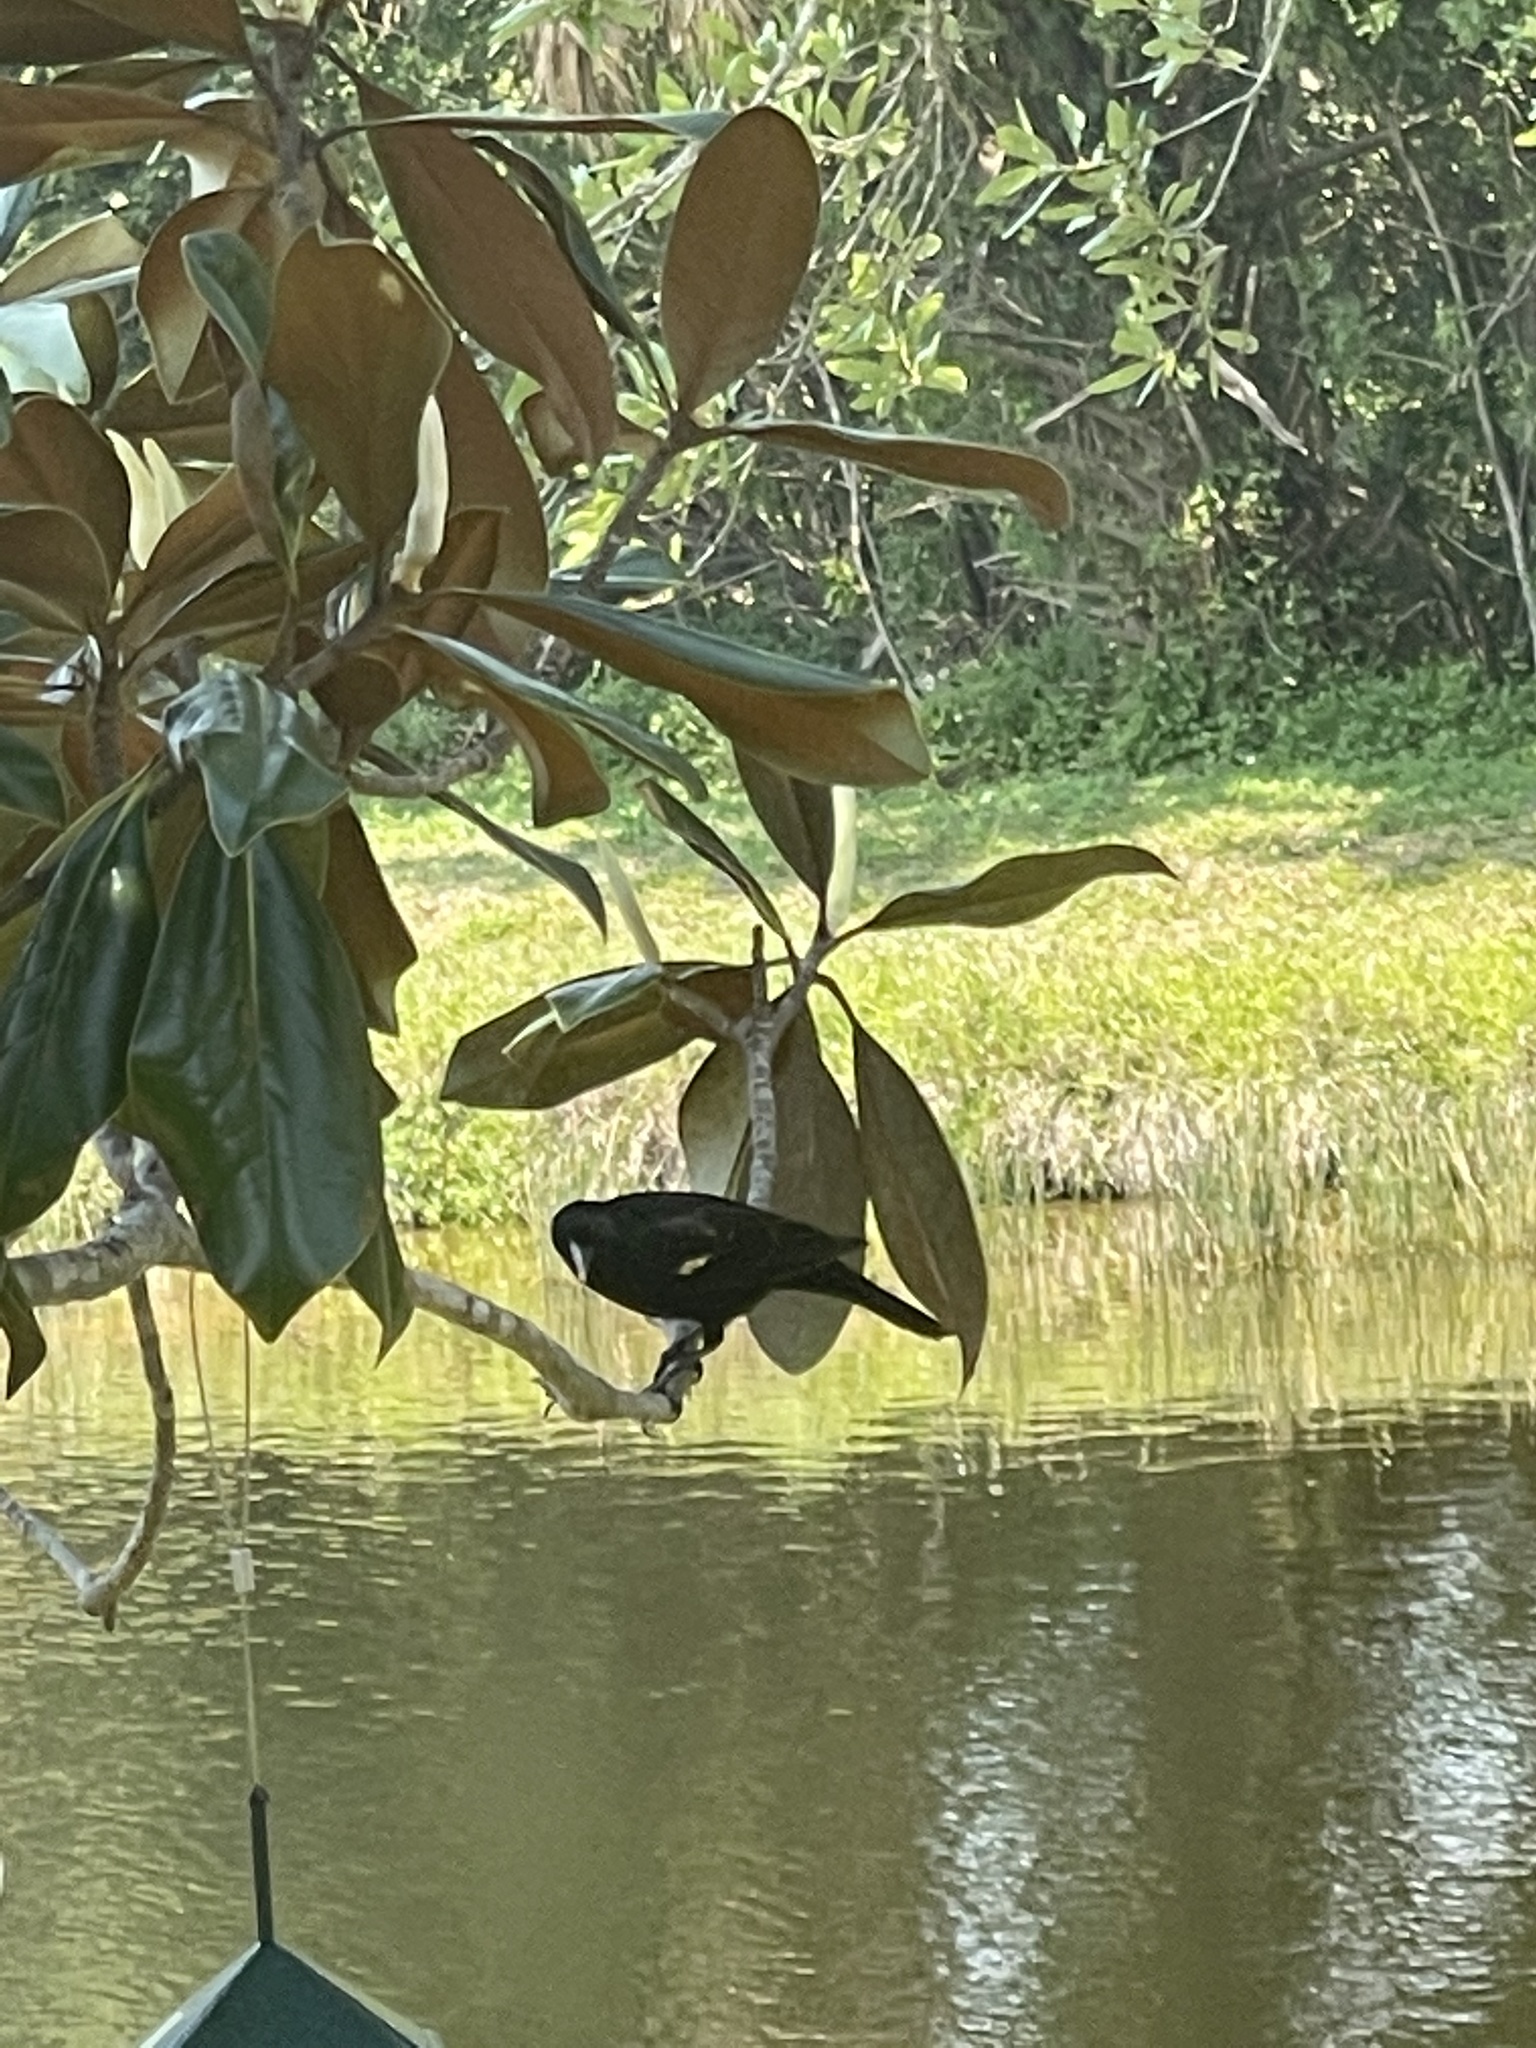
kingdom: Animalia
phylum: Chordata
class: Aves
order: Passeriformes
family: Icteridae
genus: Agelaius
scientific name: Agelaius phoeniceus
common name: Red-winged blackbird
